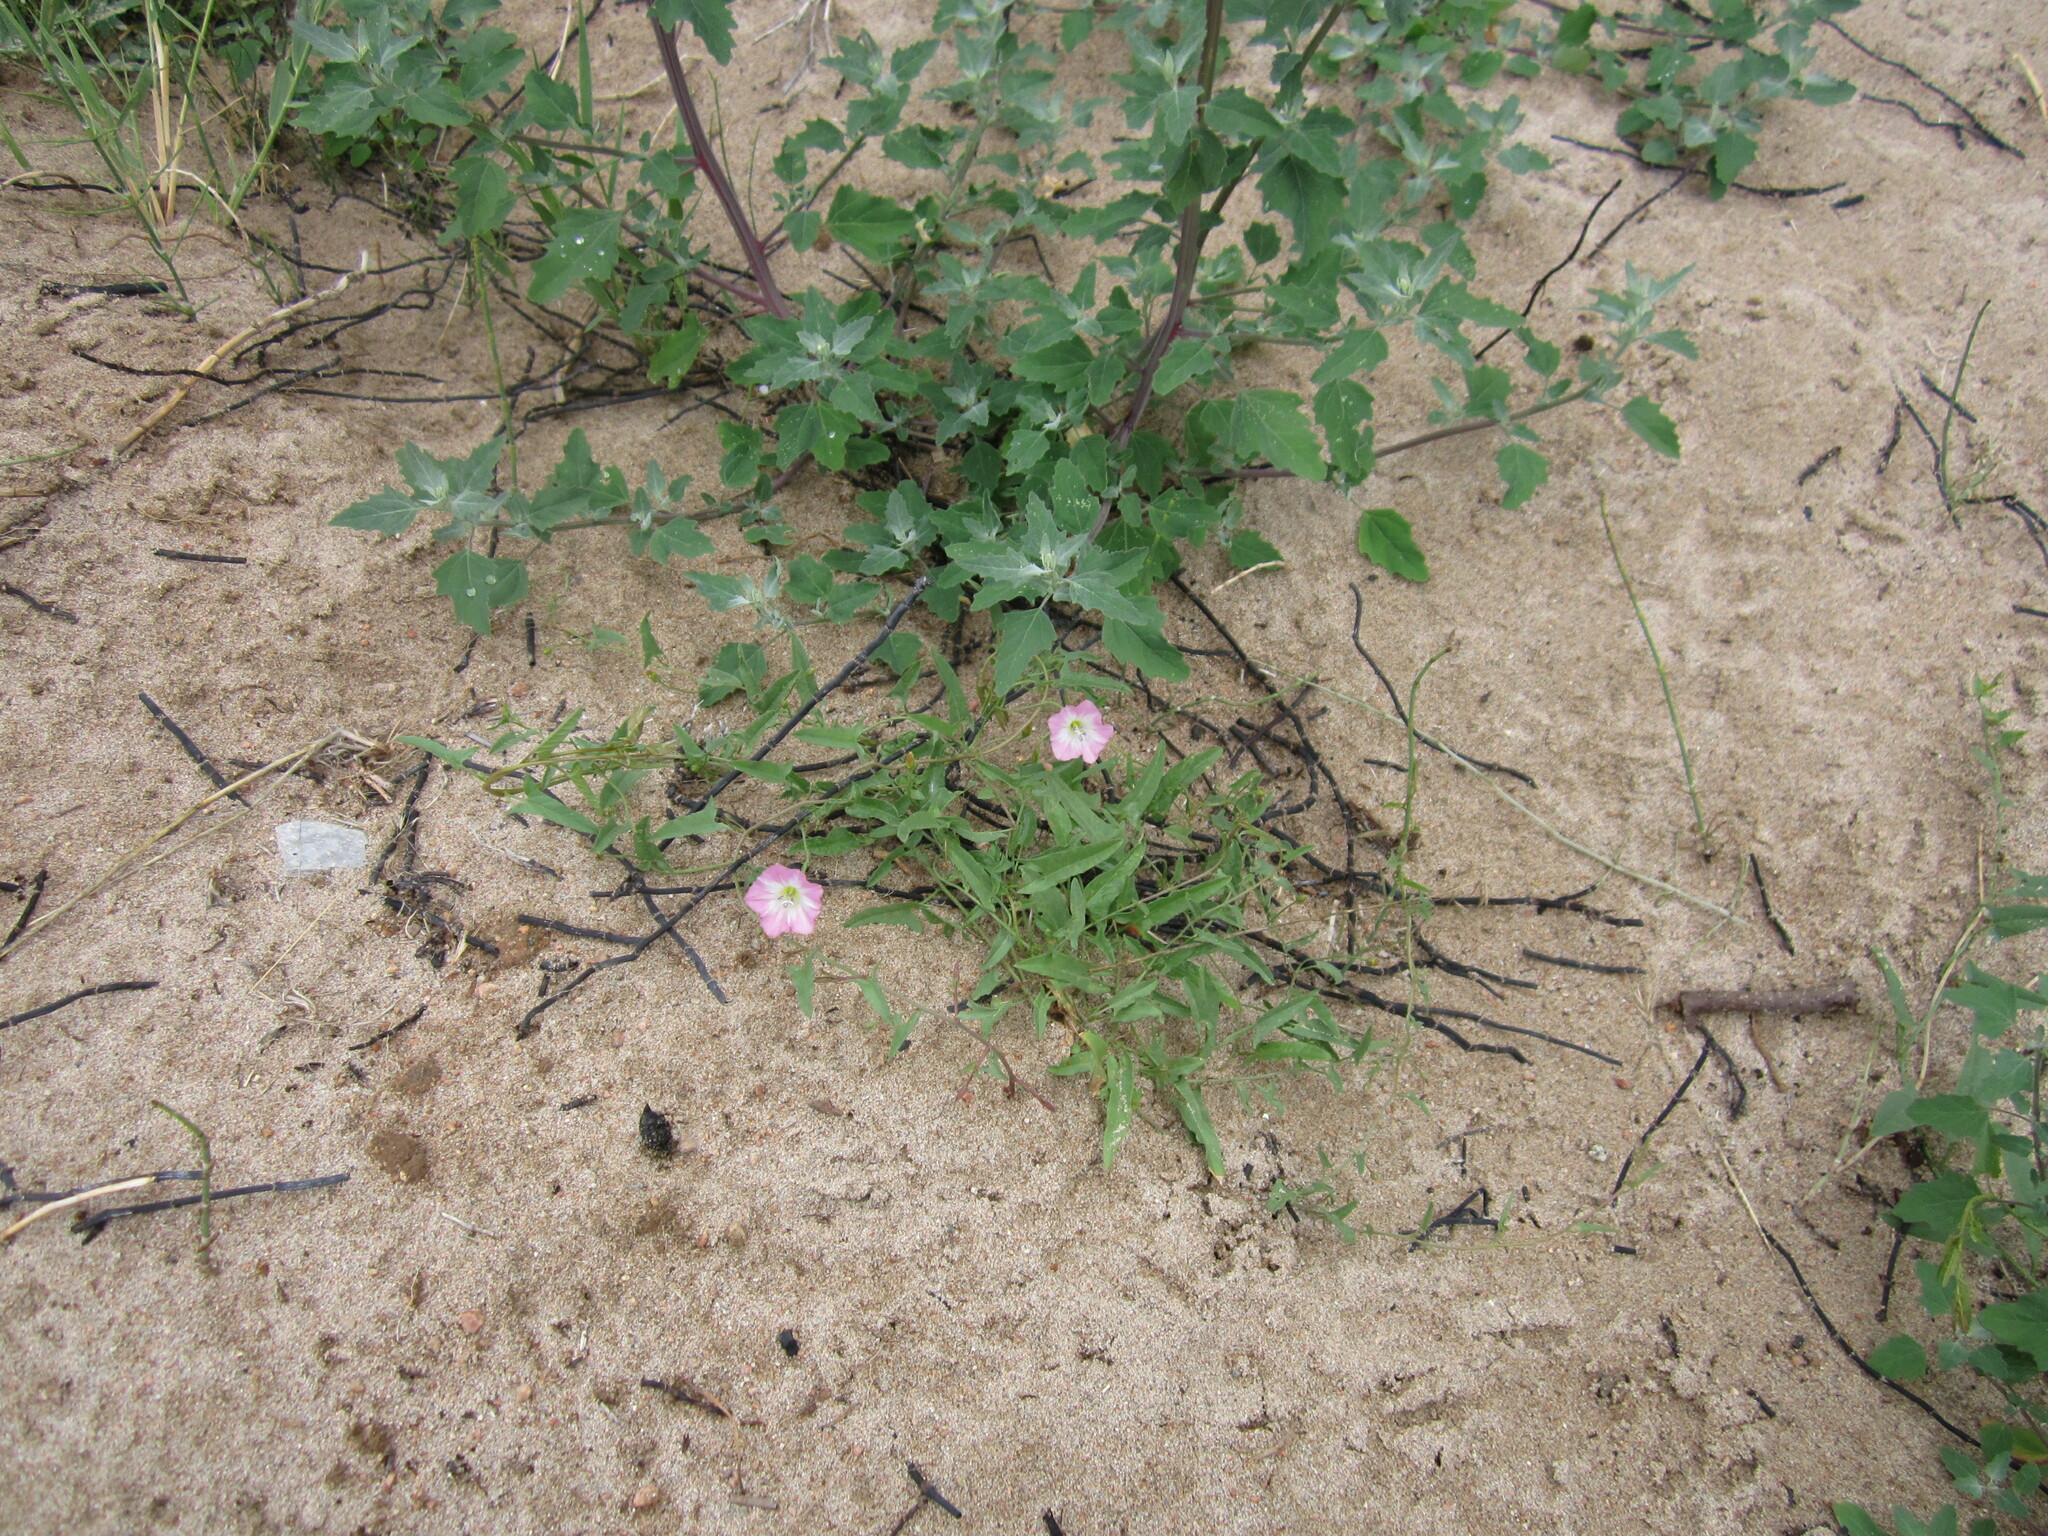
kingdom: Plantae
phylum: Tracheophyta
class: Magnoliopsida
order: Solanales
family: Convolvulaceae
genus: Convolvulus
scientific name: Convolvulus arvensis
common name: Field bindweed
